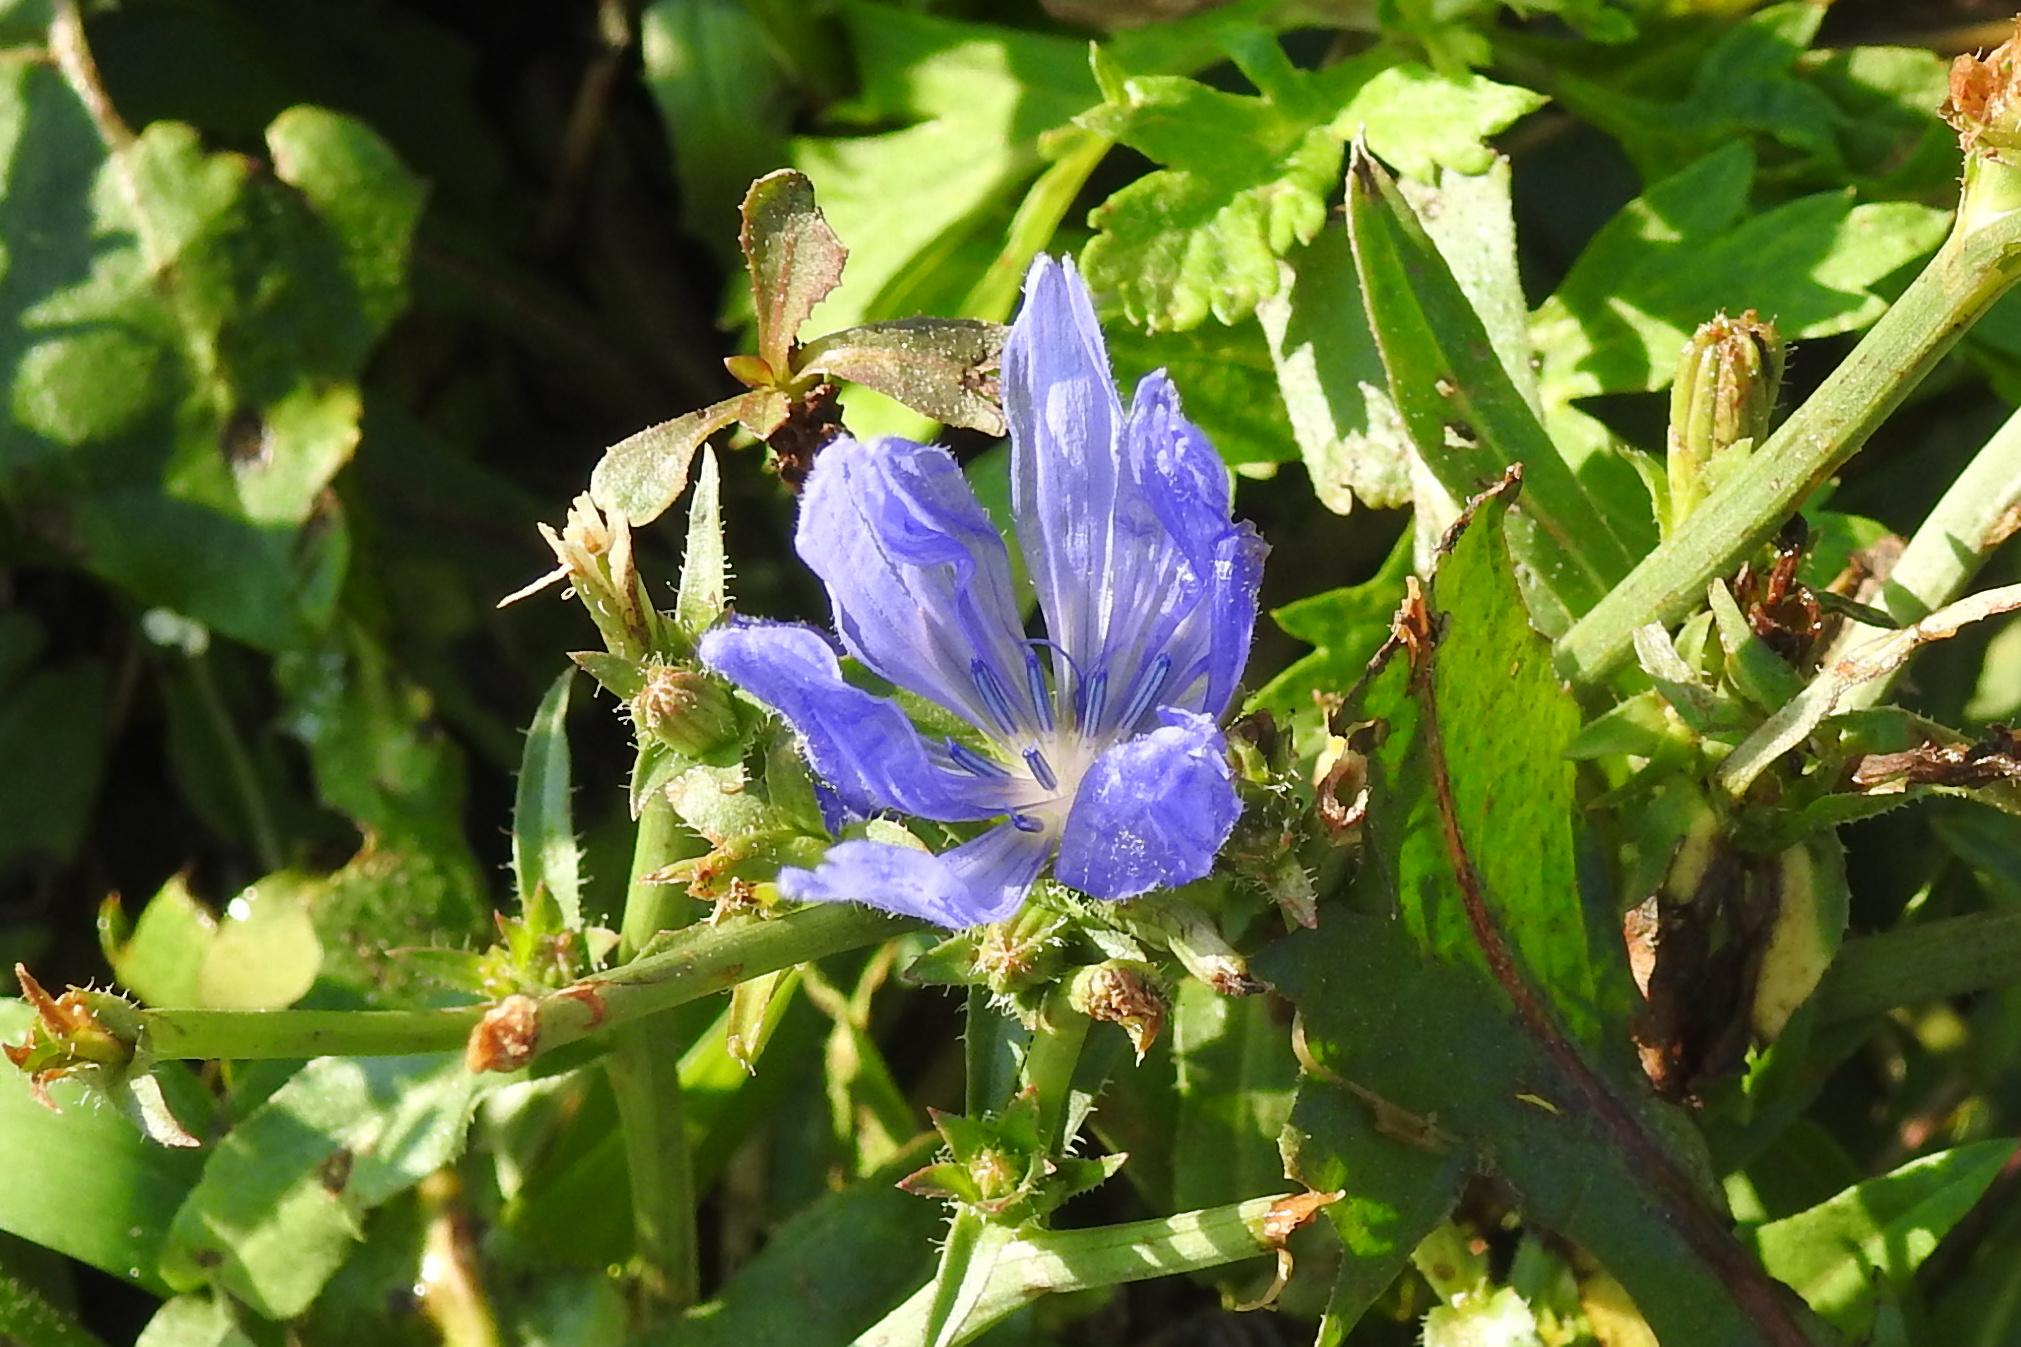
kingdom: Plantae
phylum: Tracheophyta
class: Magnoliopsida
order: Asterales
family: Asteraceae
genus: Cichorium
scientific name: Cichorium intybus
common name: Chicory
